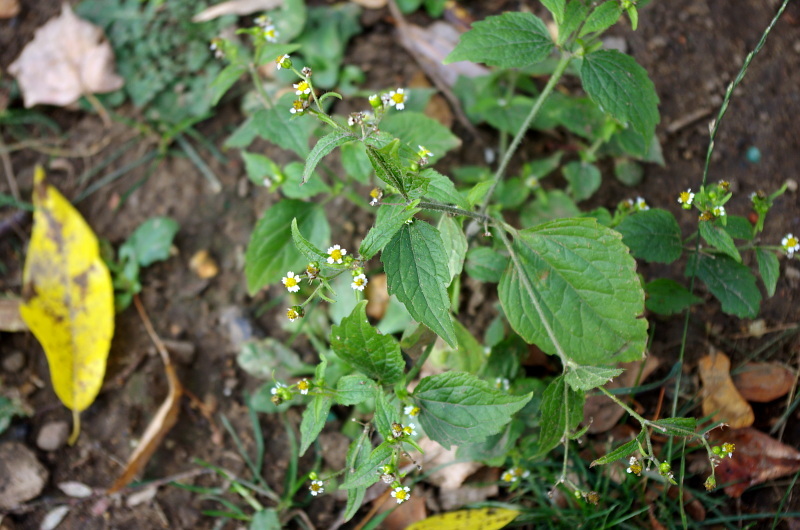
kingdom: Plantae
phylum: Tracheophyta
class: Magnoliopsida
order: Asterales
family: Asteraceae
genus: Galinsoga
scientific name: Galinsoga quadriradiata
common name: Shaggy soldier
